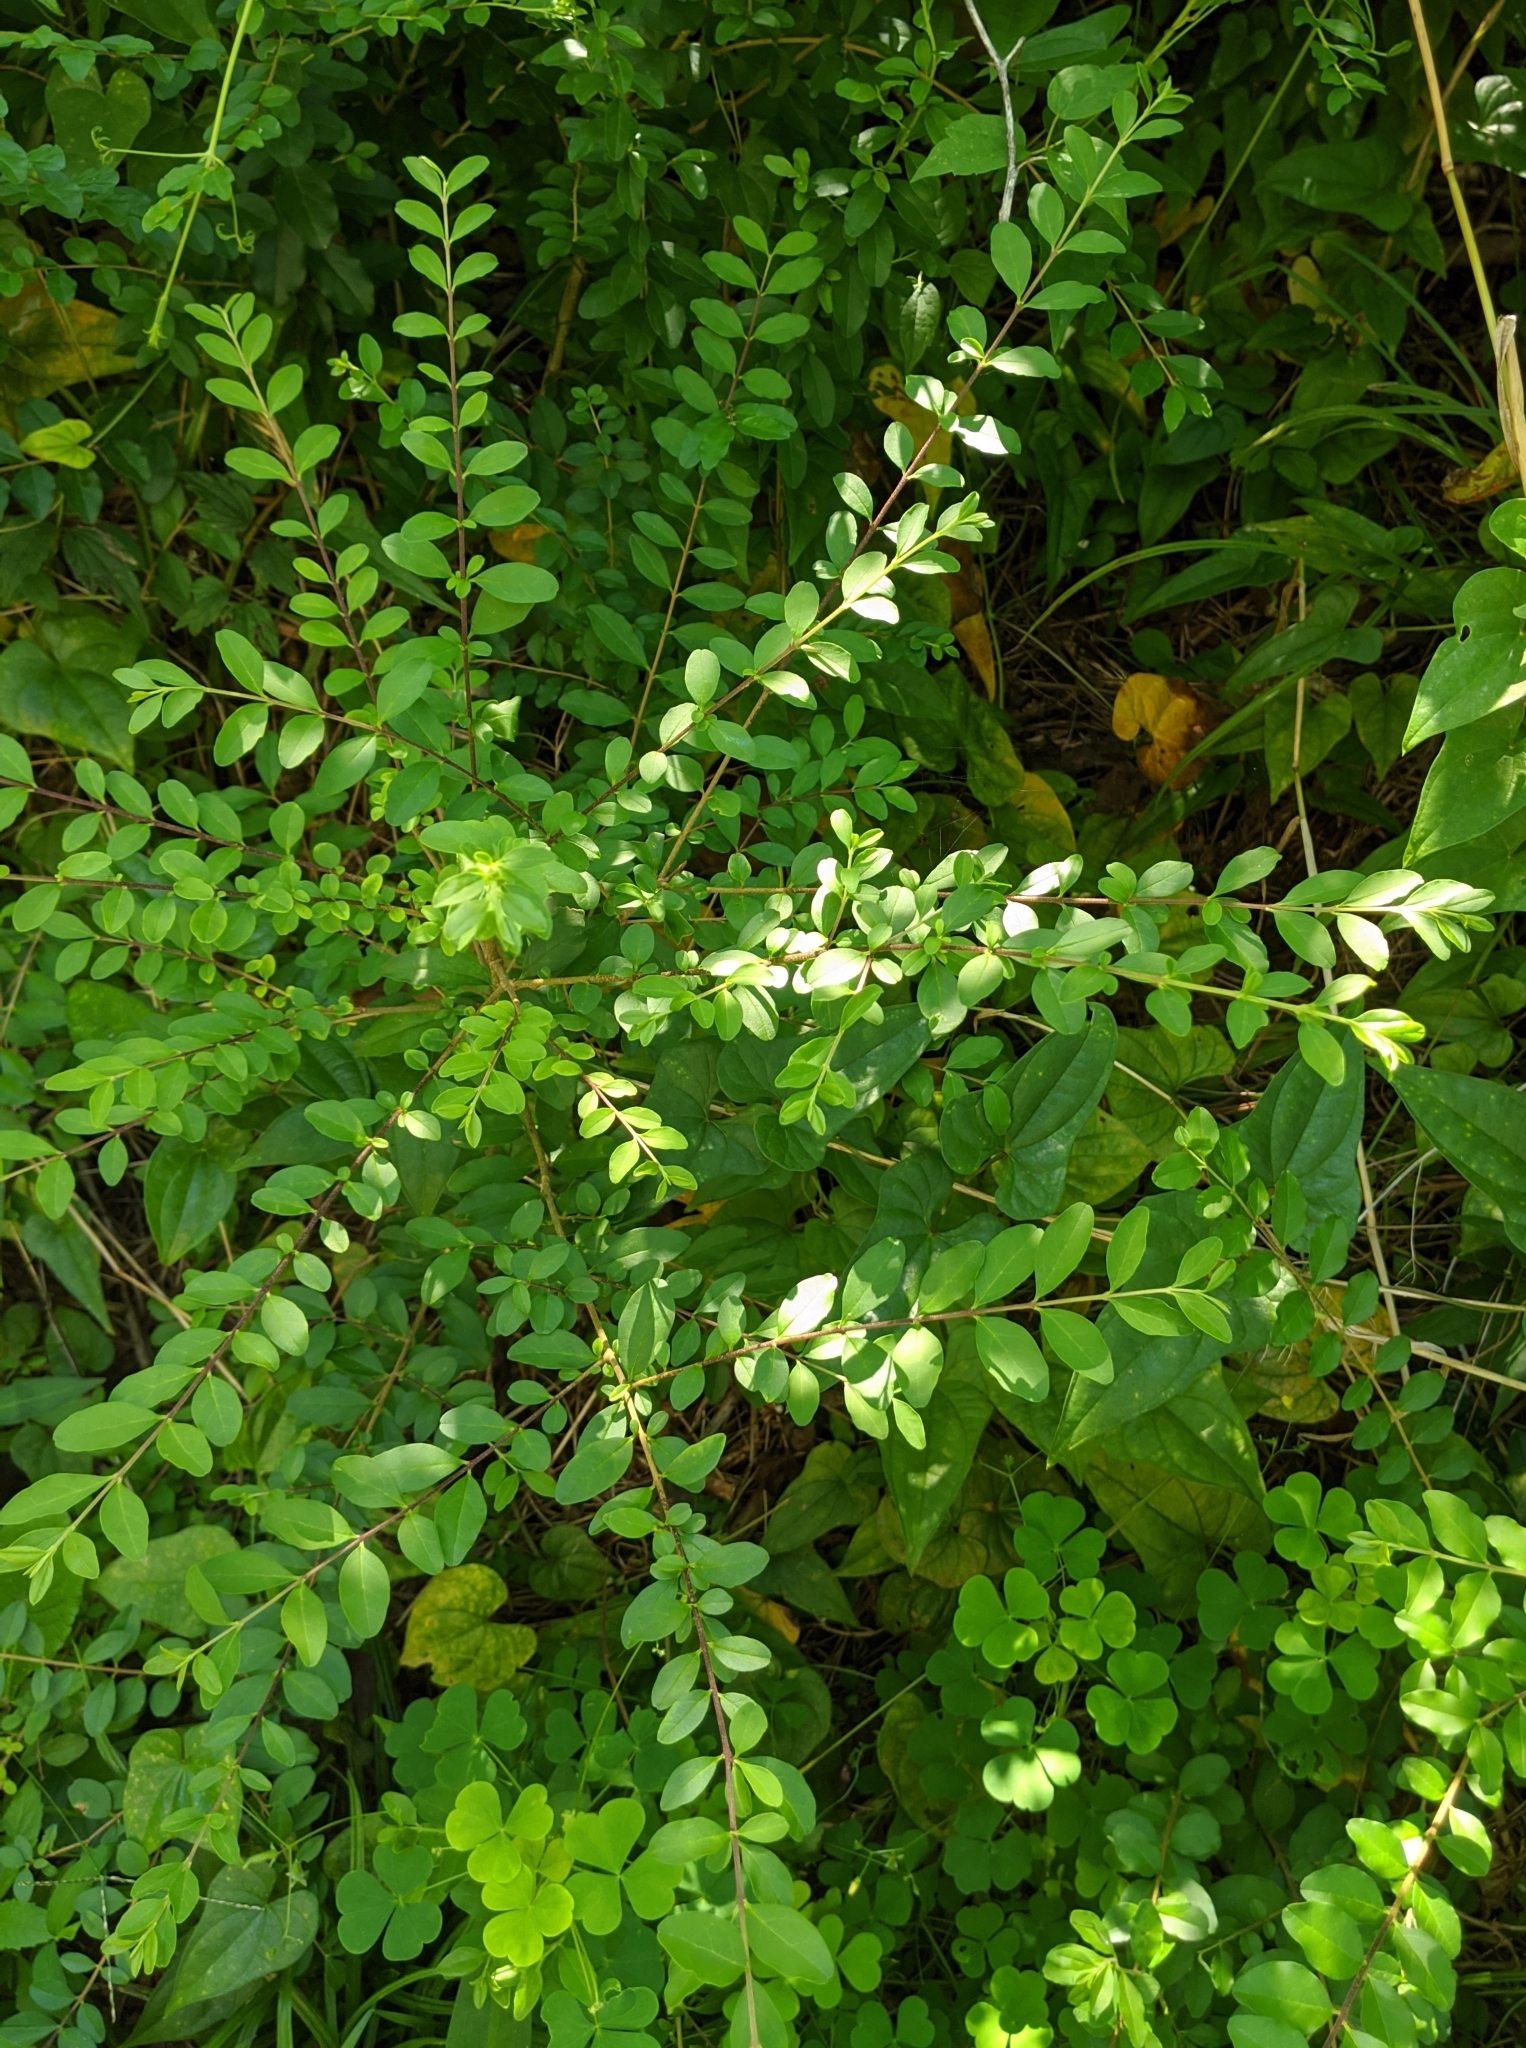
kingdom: Plantae
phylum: Tracheophyta
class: Magnoliopsida
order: Lamiales
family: Oleaceae
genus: Ligustrum
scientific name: Ligustrum sinense
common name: Chinese privet
